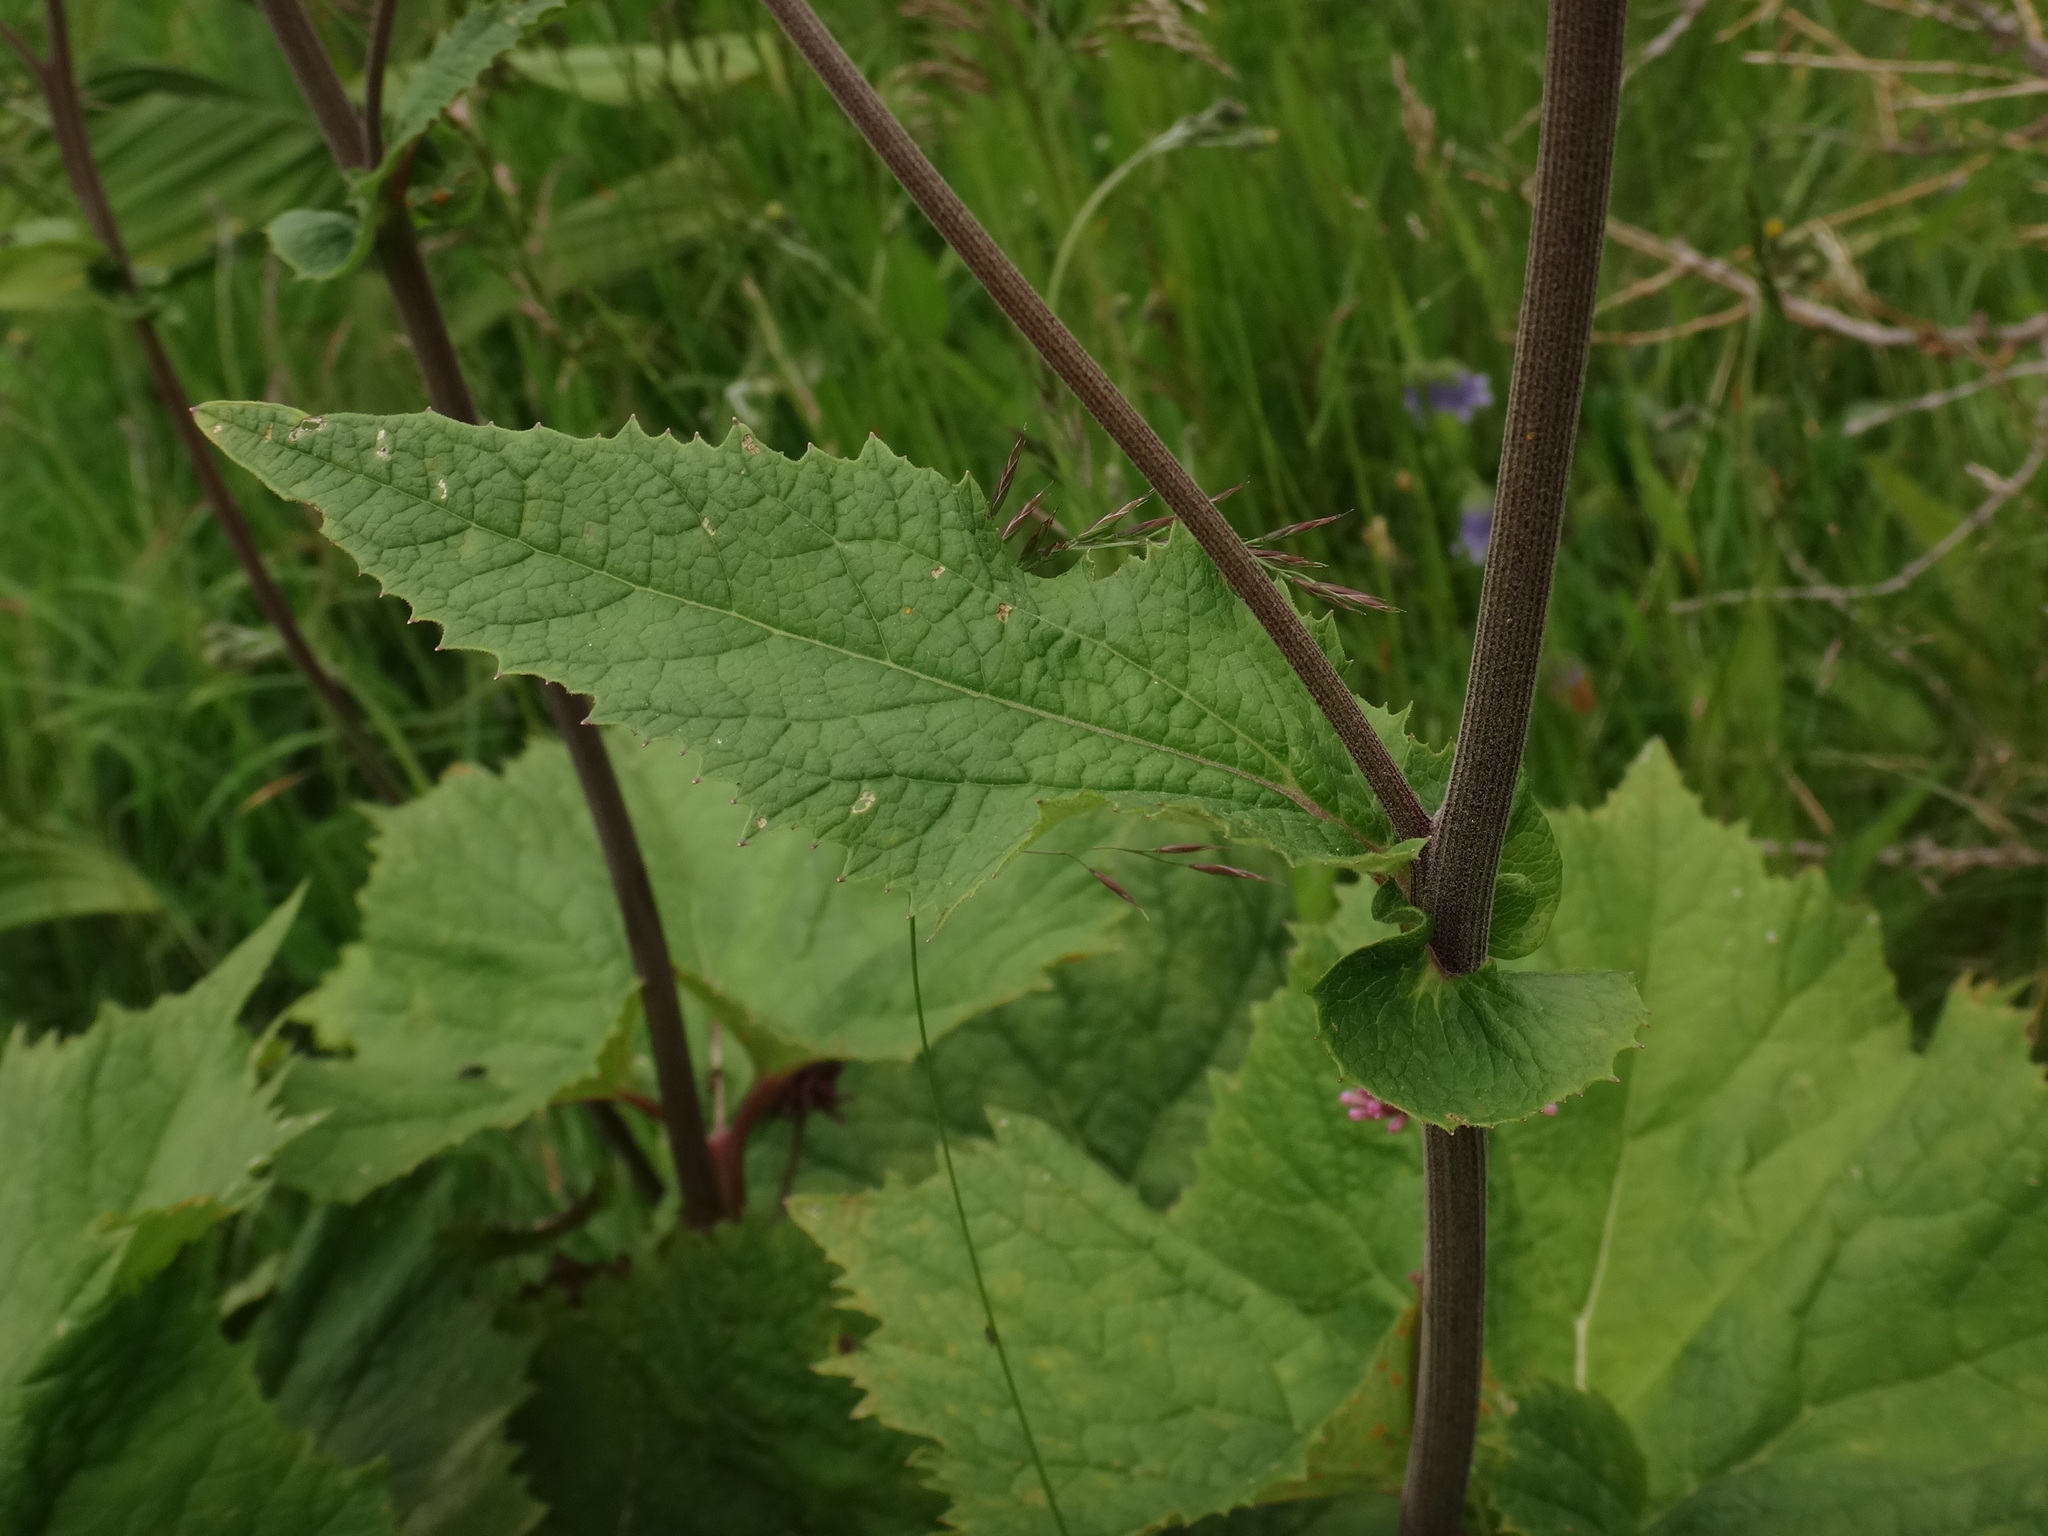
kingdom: Plantae
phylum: Tracheophyta
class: Magnoliopsida
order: Asterales
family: Asteraceae
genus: Adenostyles
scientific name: Adenostyles alliariae
